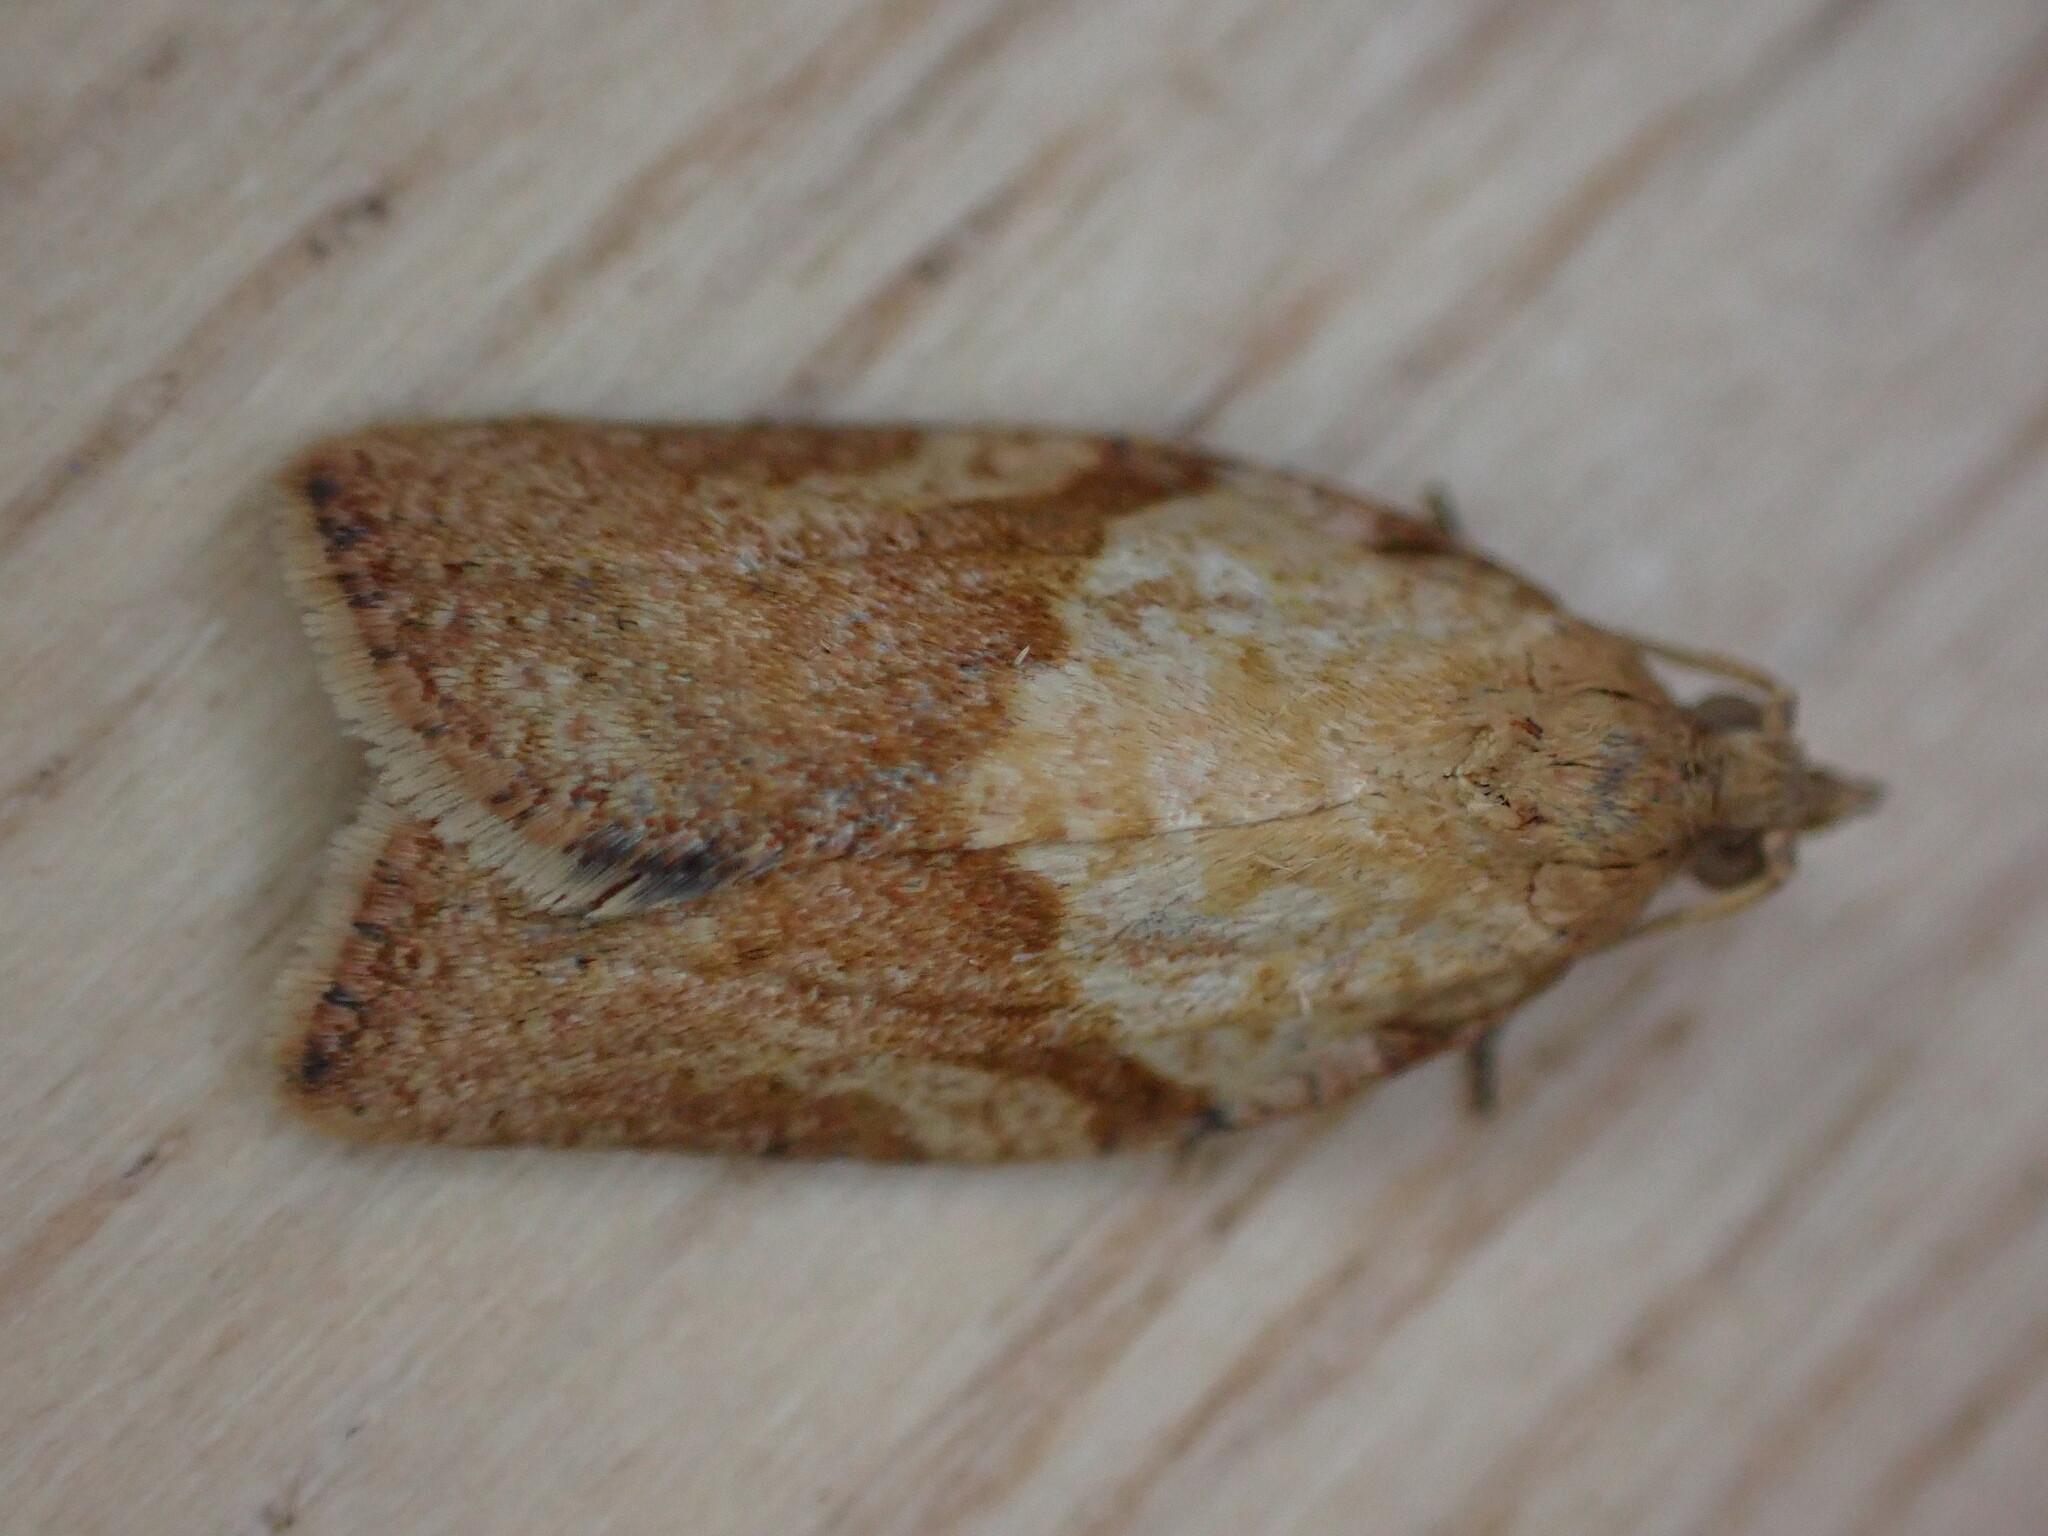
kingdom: Animalia
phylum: Arthropoda
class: Insecta
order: Lepidoptera
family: Tortricidae
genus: Epiphyas
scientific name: Epiphyas postvittana
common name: Light brown apple moth
